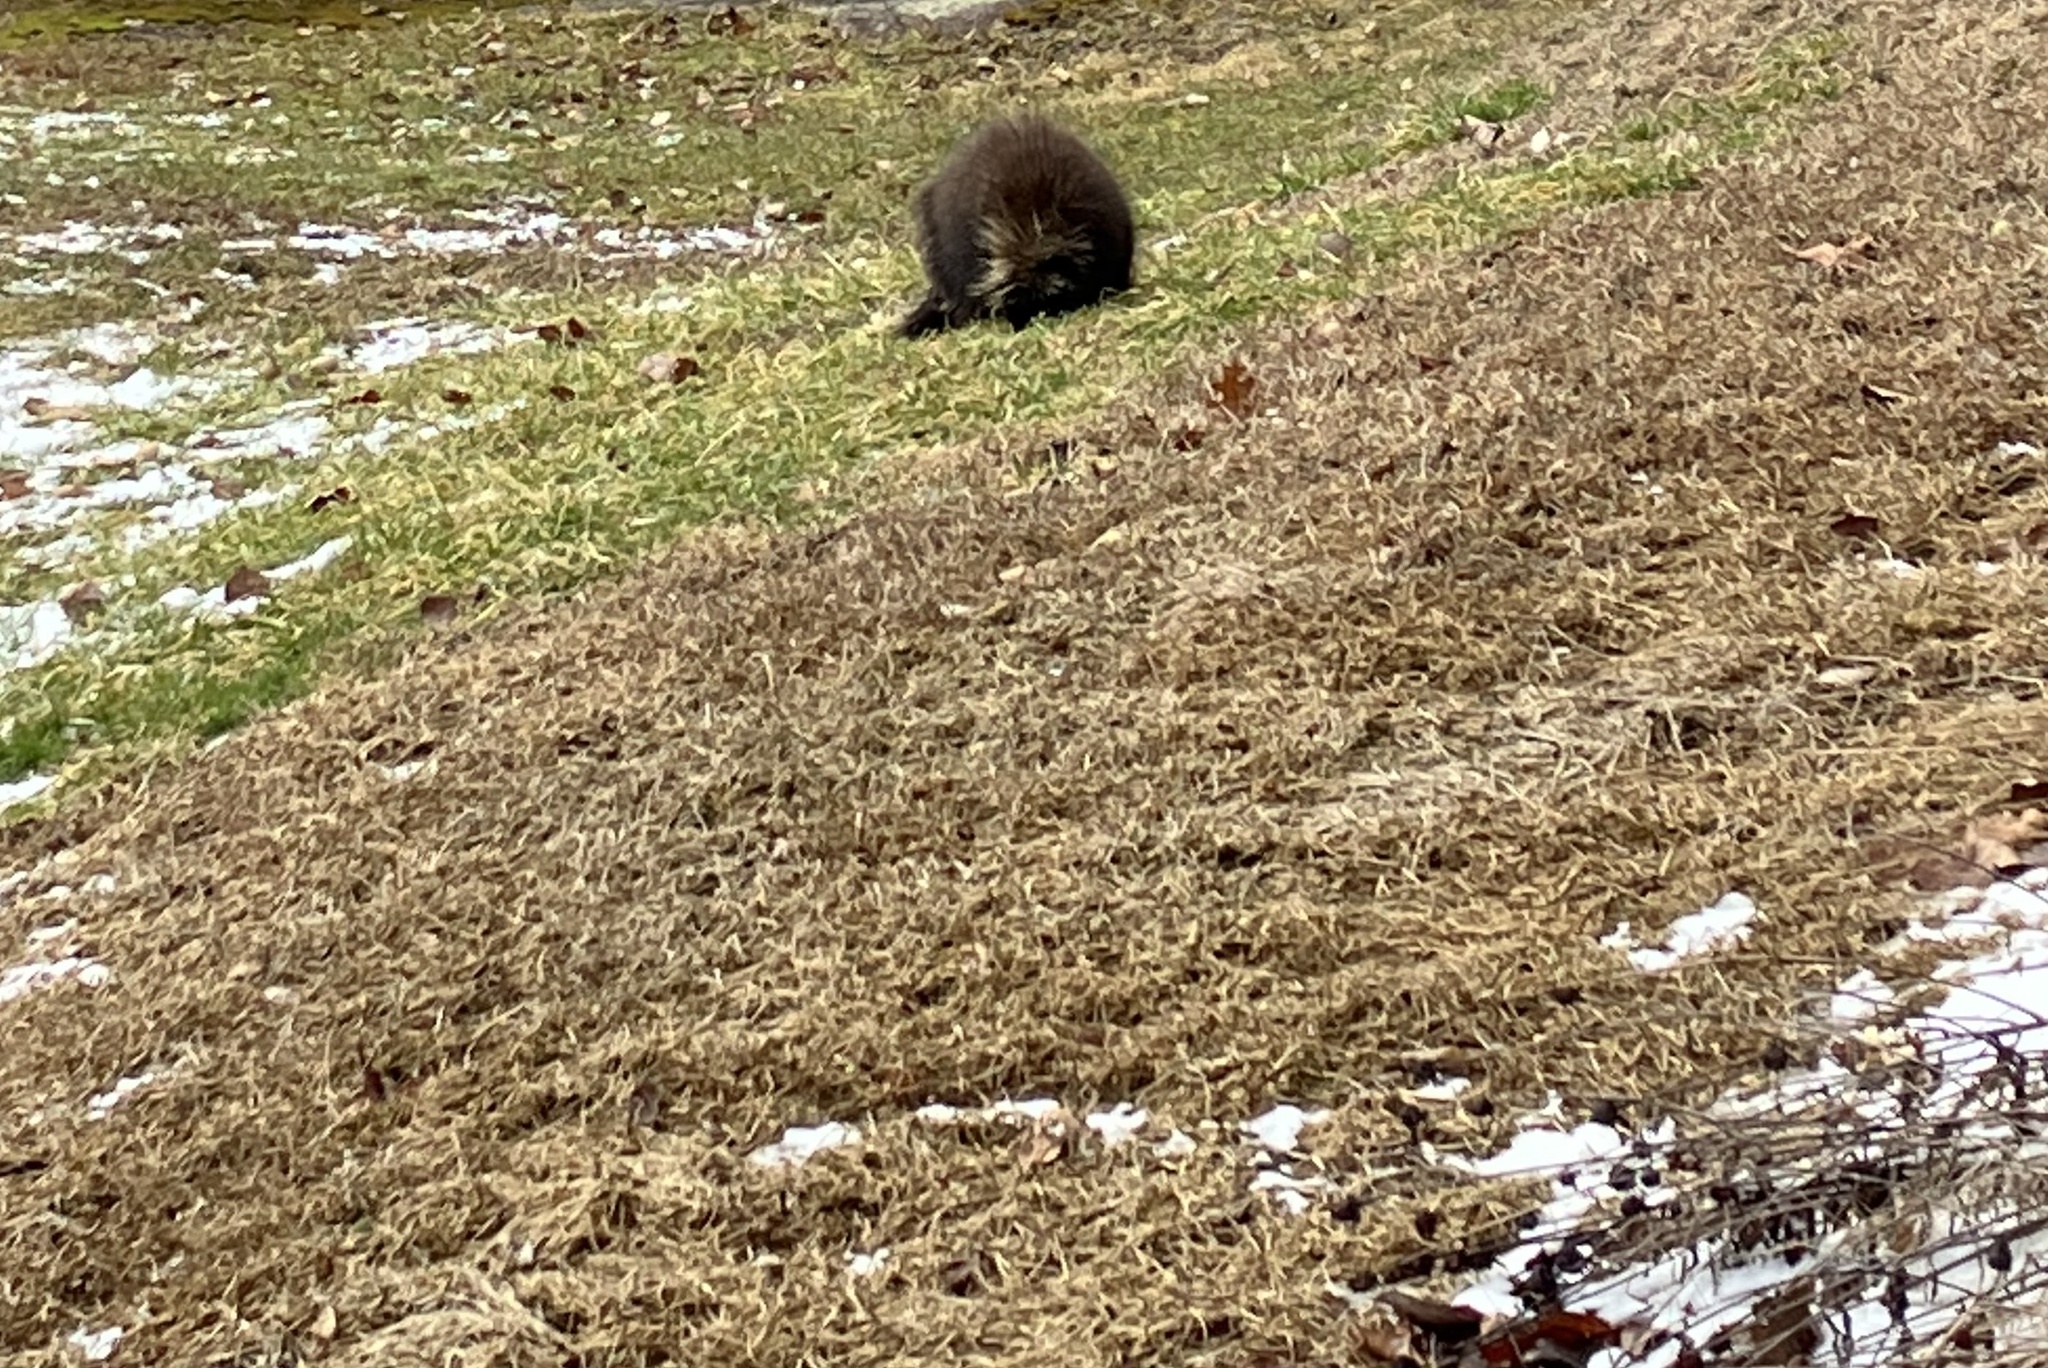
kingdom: Animalia
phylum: Chordata
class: Mammalia
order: Rodentia
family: Erethizontidae
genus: Erethizon
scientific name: Erethizon dorsatus
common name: North american porcupine
